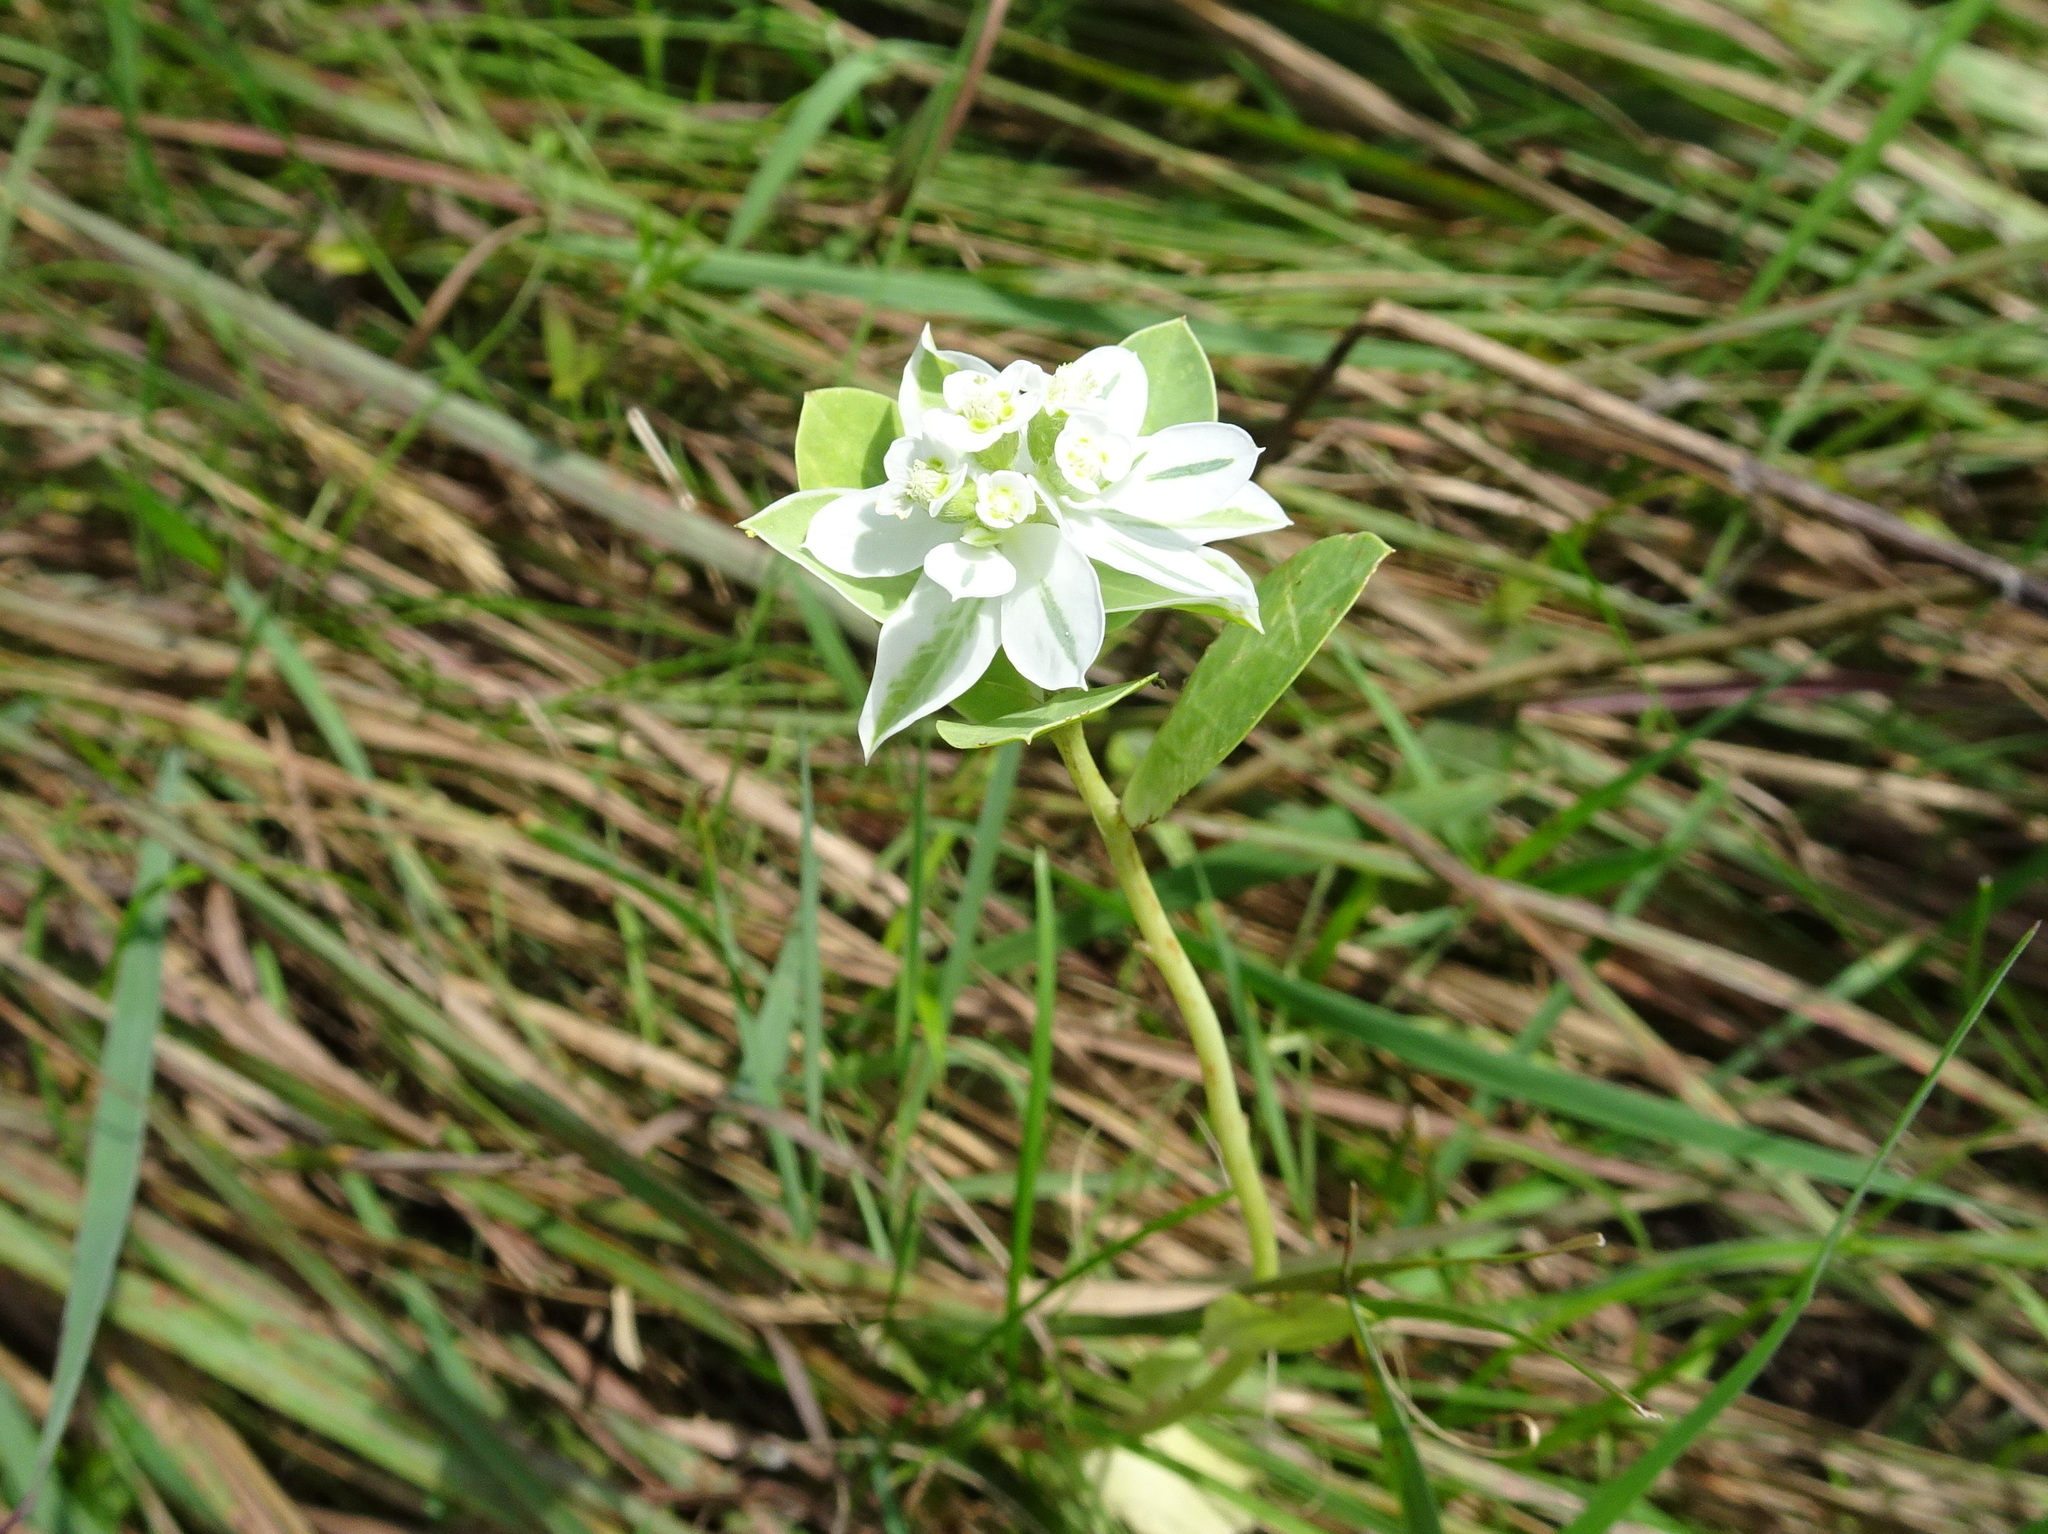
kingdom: Plantae
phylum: Tracheophyta
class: Magnoliopsida
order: Malpighiales
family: Euphorbiaceae
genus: Euphorbia
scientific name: Euphorbia marginata
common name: Ghostweed
